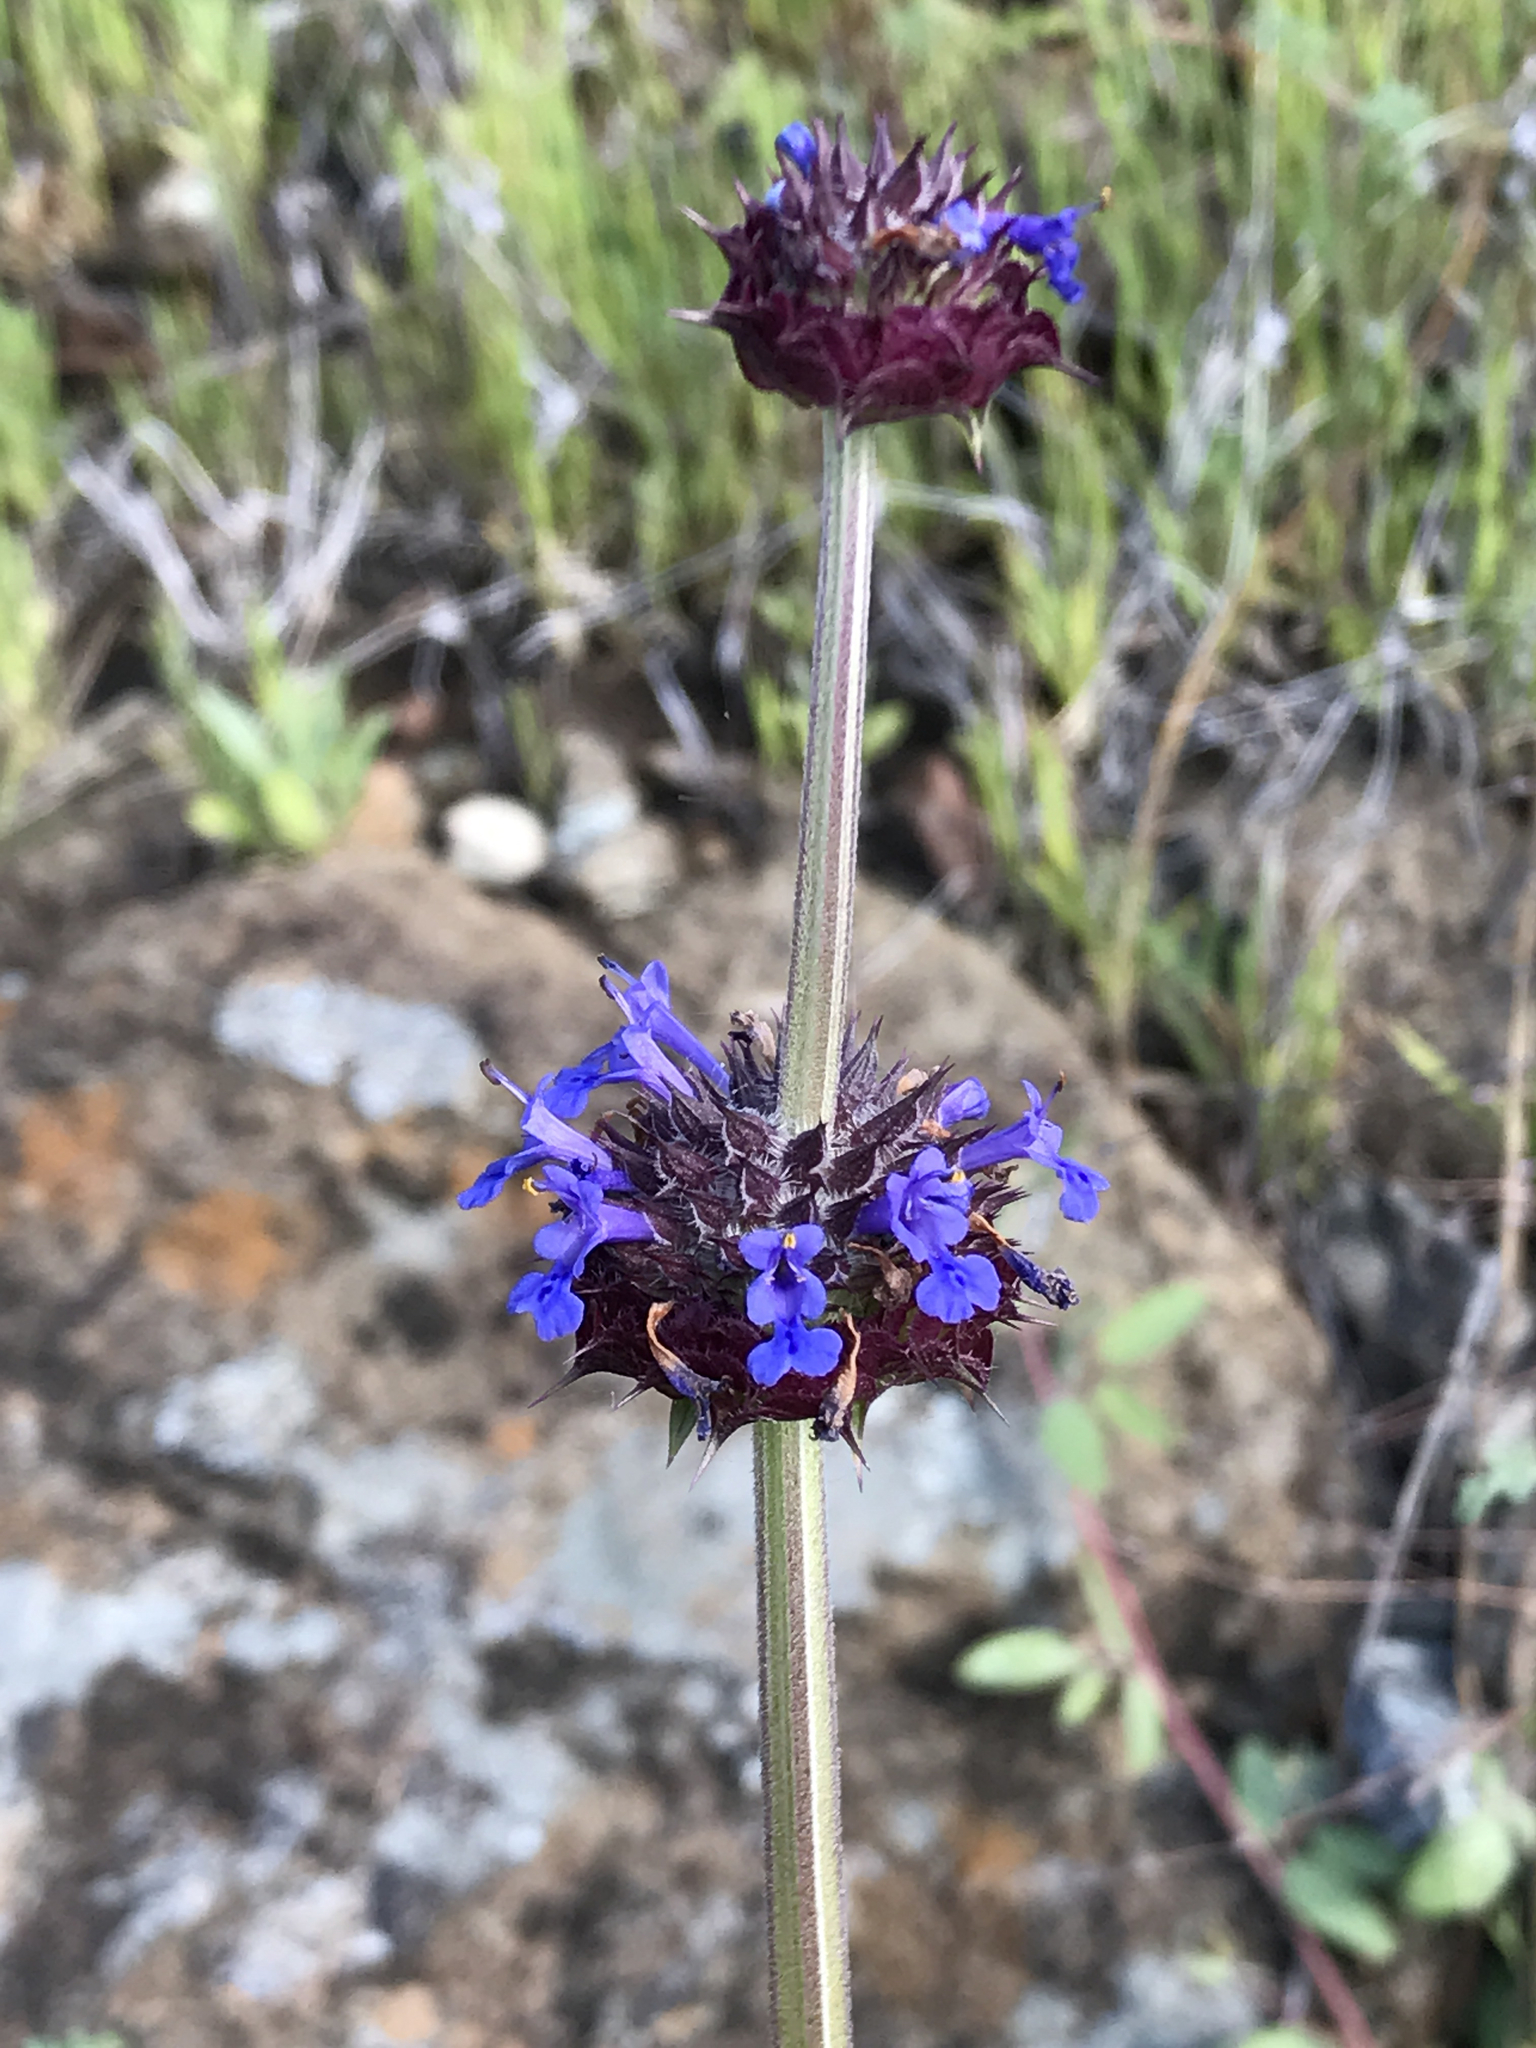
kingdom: Plantae
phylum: Tracheophyta
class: Magnoliopsida
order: Lamiales
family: Lamiaceae
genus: Salvia
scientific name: Salvia columbariae
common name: Chia
